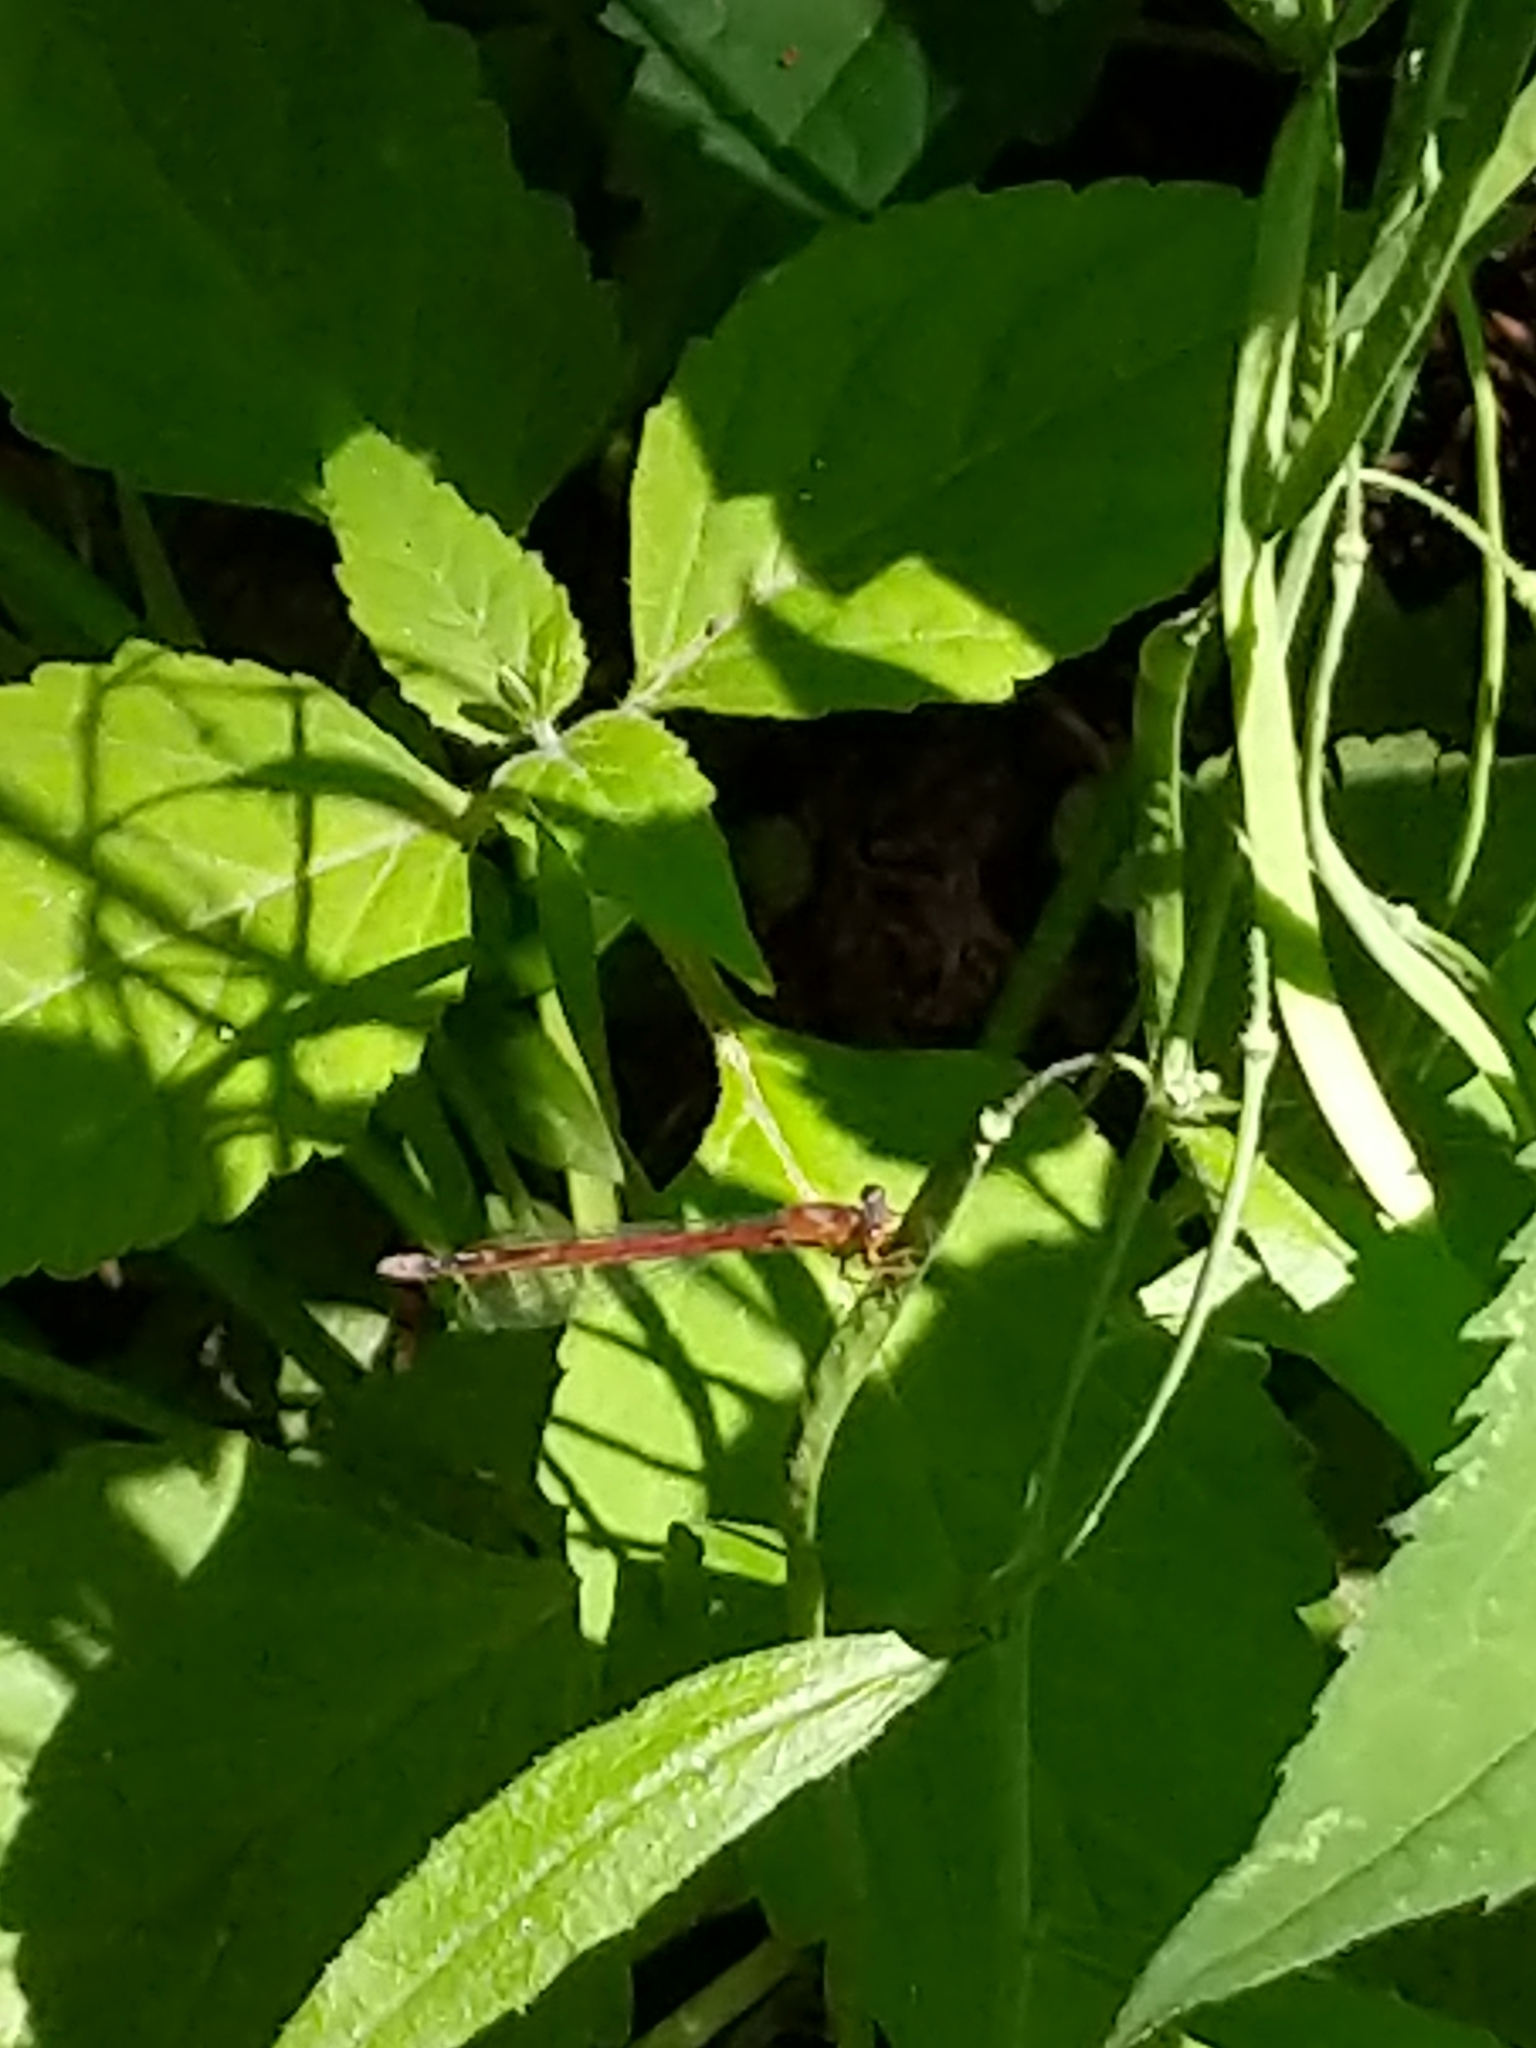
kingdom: Animalia
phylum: Arthropoda
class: Insecta
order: Odonata
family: Coenagrionidae
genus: Amphiagrion
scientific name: Amphiagrion saucium
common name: Eastern red damsel
